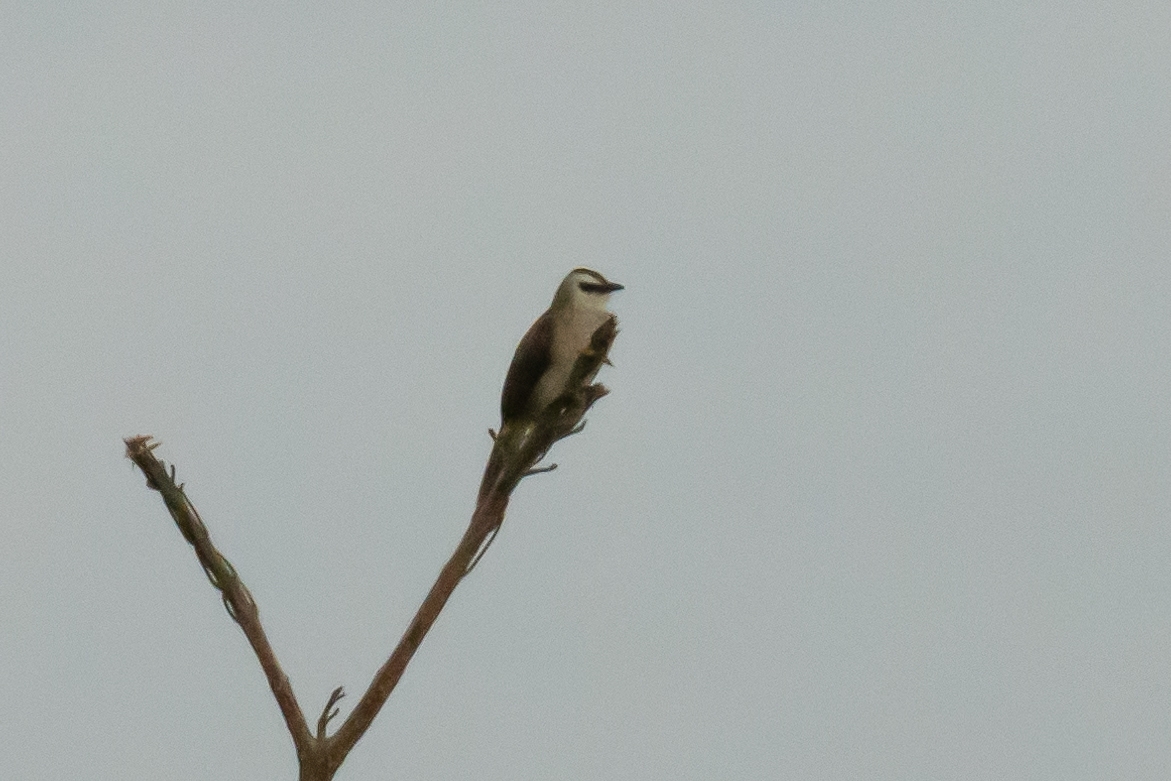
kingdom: Animalia
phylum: Chordata
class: Aves
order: Passeriformes
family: Pycnonotidae
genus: Pycnonotus
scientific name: Pycnonotus goiavier
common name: Yellow-vented bulbul
